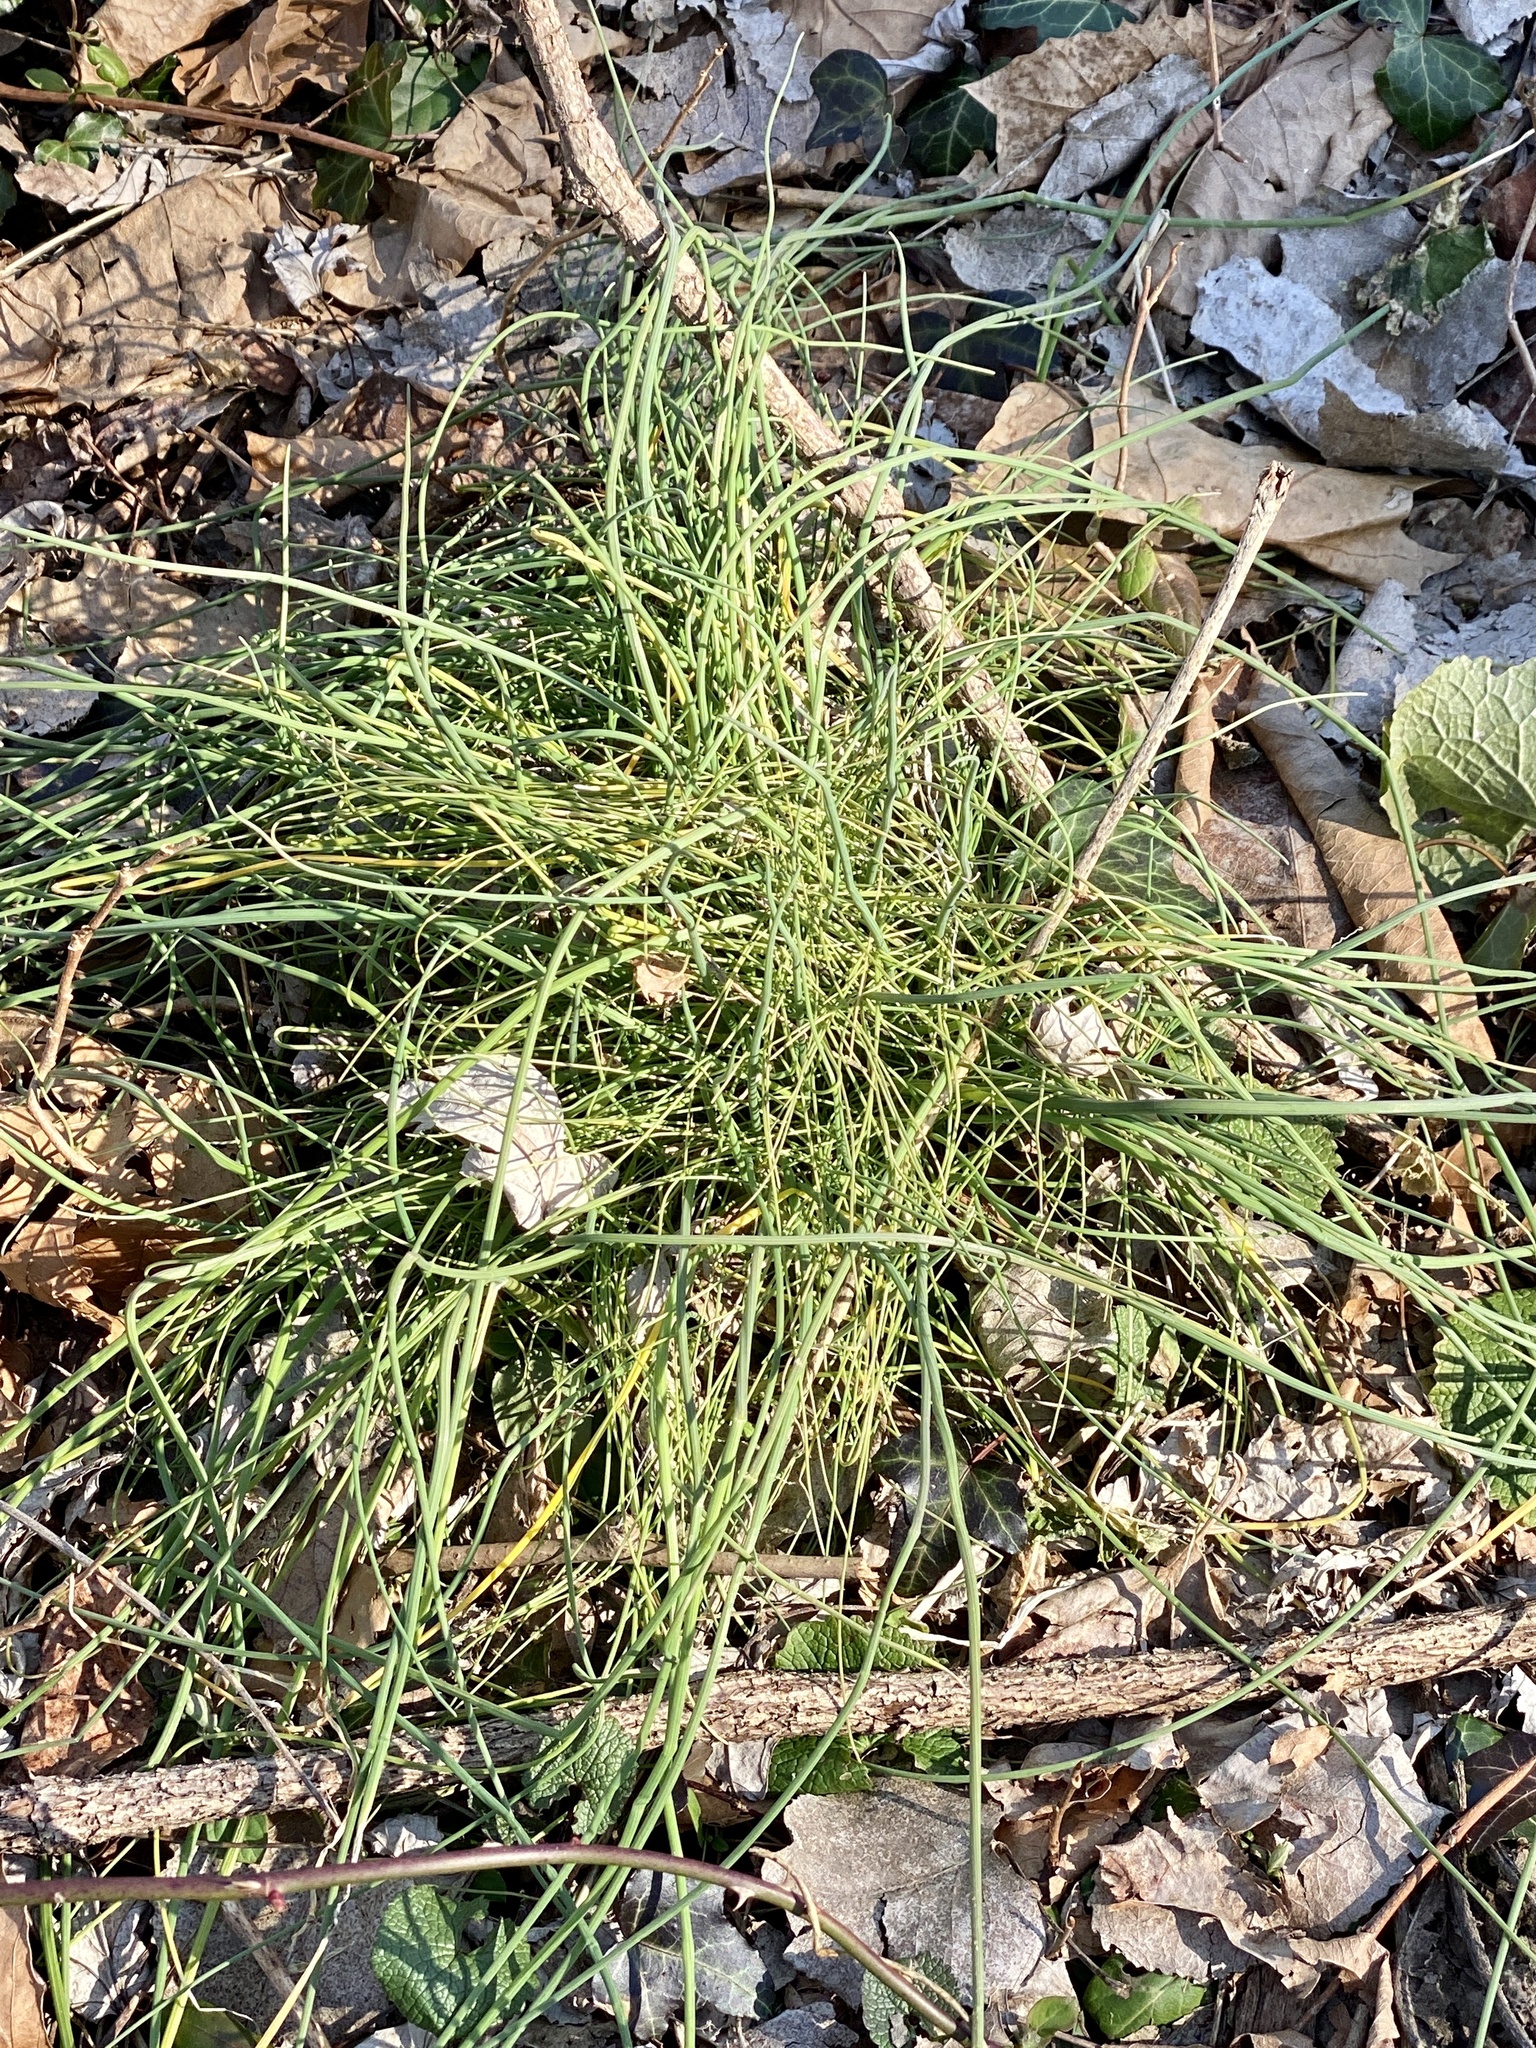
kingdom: Plantae
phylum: Tracheophyta
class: Liliopsida
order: Asparagales
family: Amaryllidaceae
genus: Allium
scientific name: Allium vineale
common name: Crow garlic
